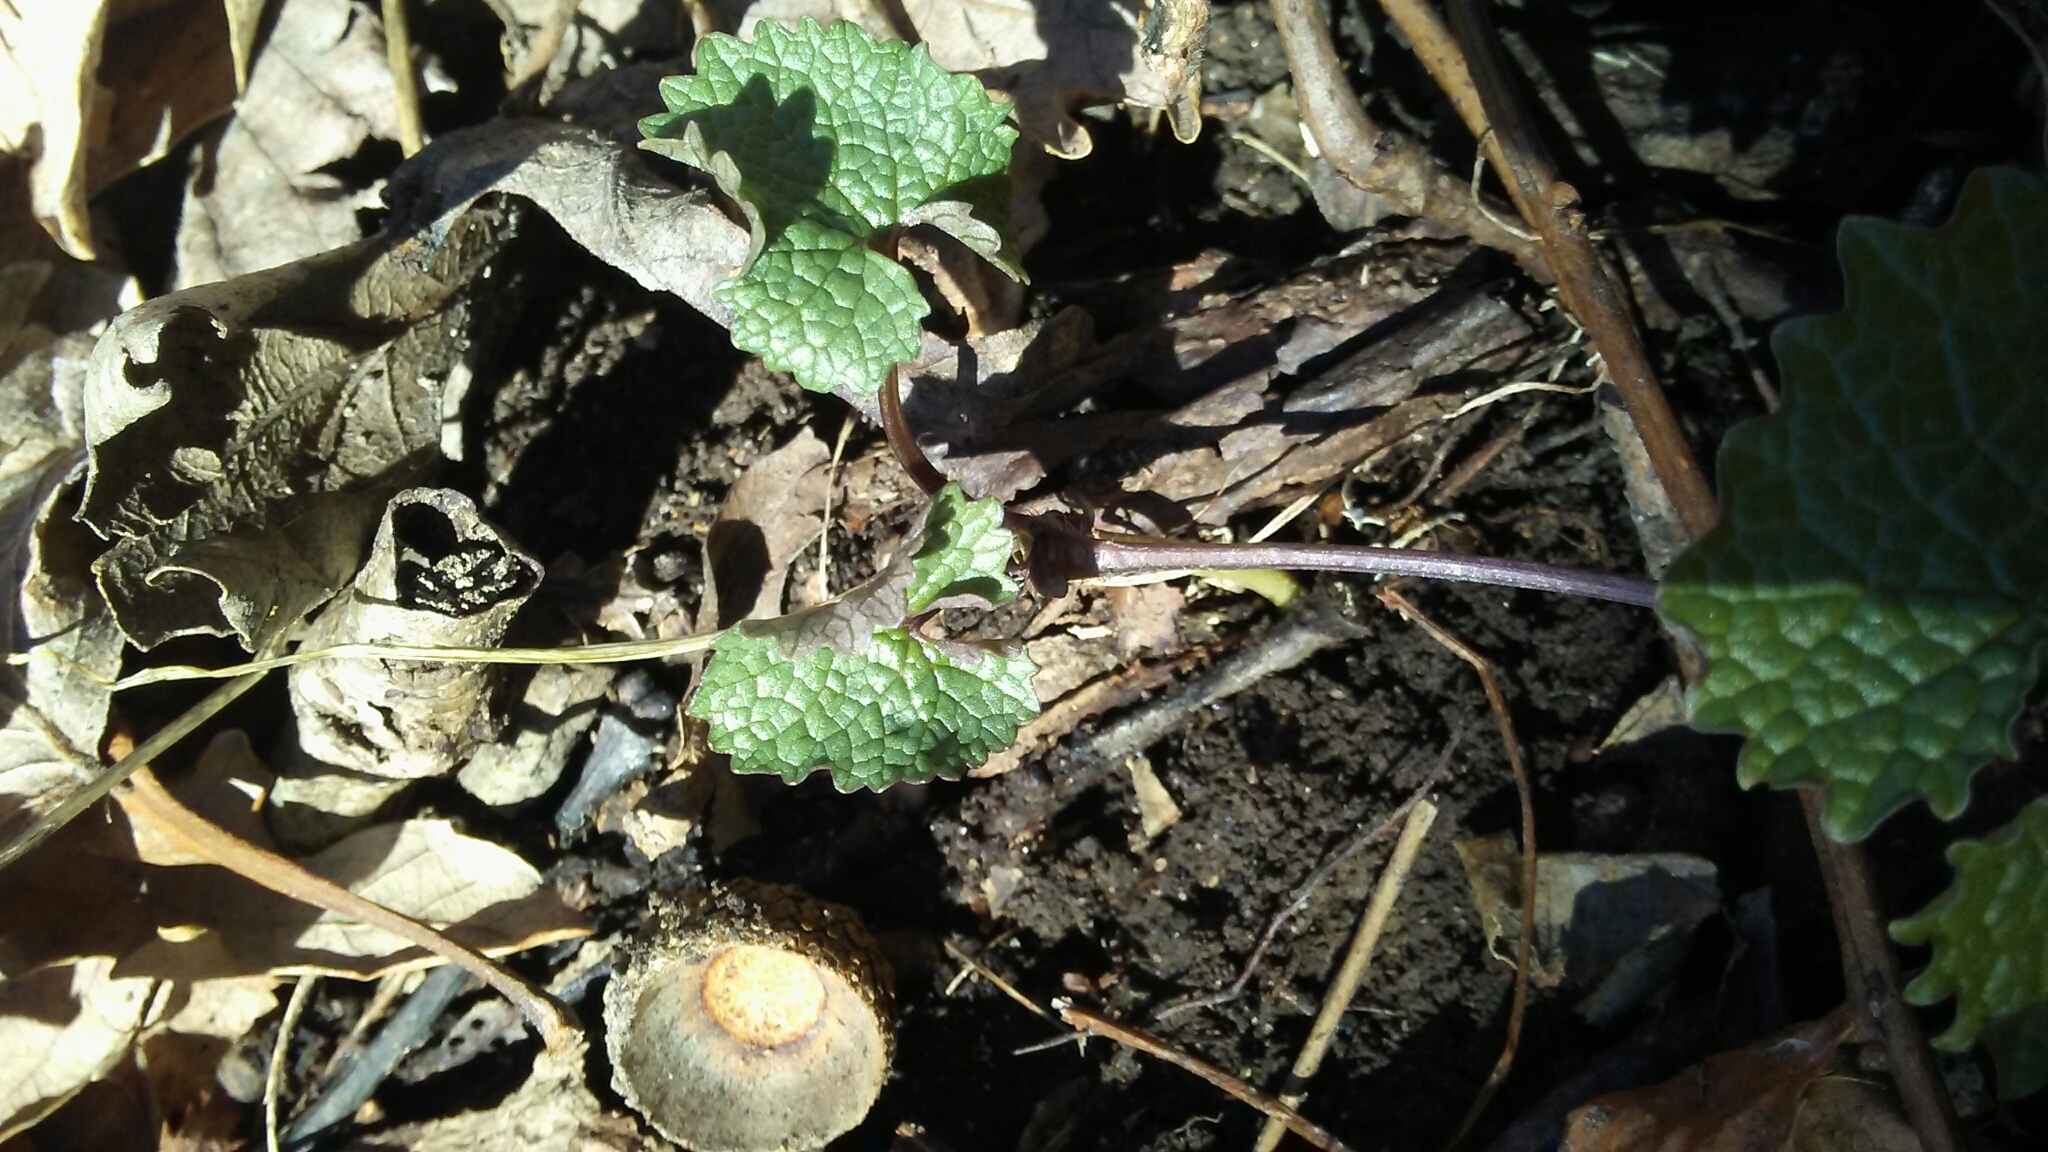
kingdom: Plantae
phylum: Tracheophyta
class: Magnoliopsida
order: Brassicales
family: Brassicaceae
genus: Alliaria
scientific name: Alliaria petiolata
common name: Garlic mustard
